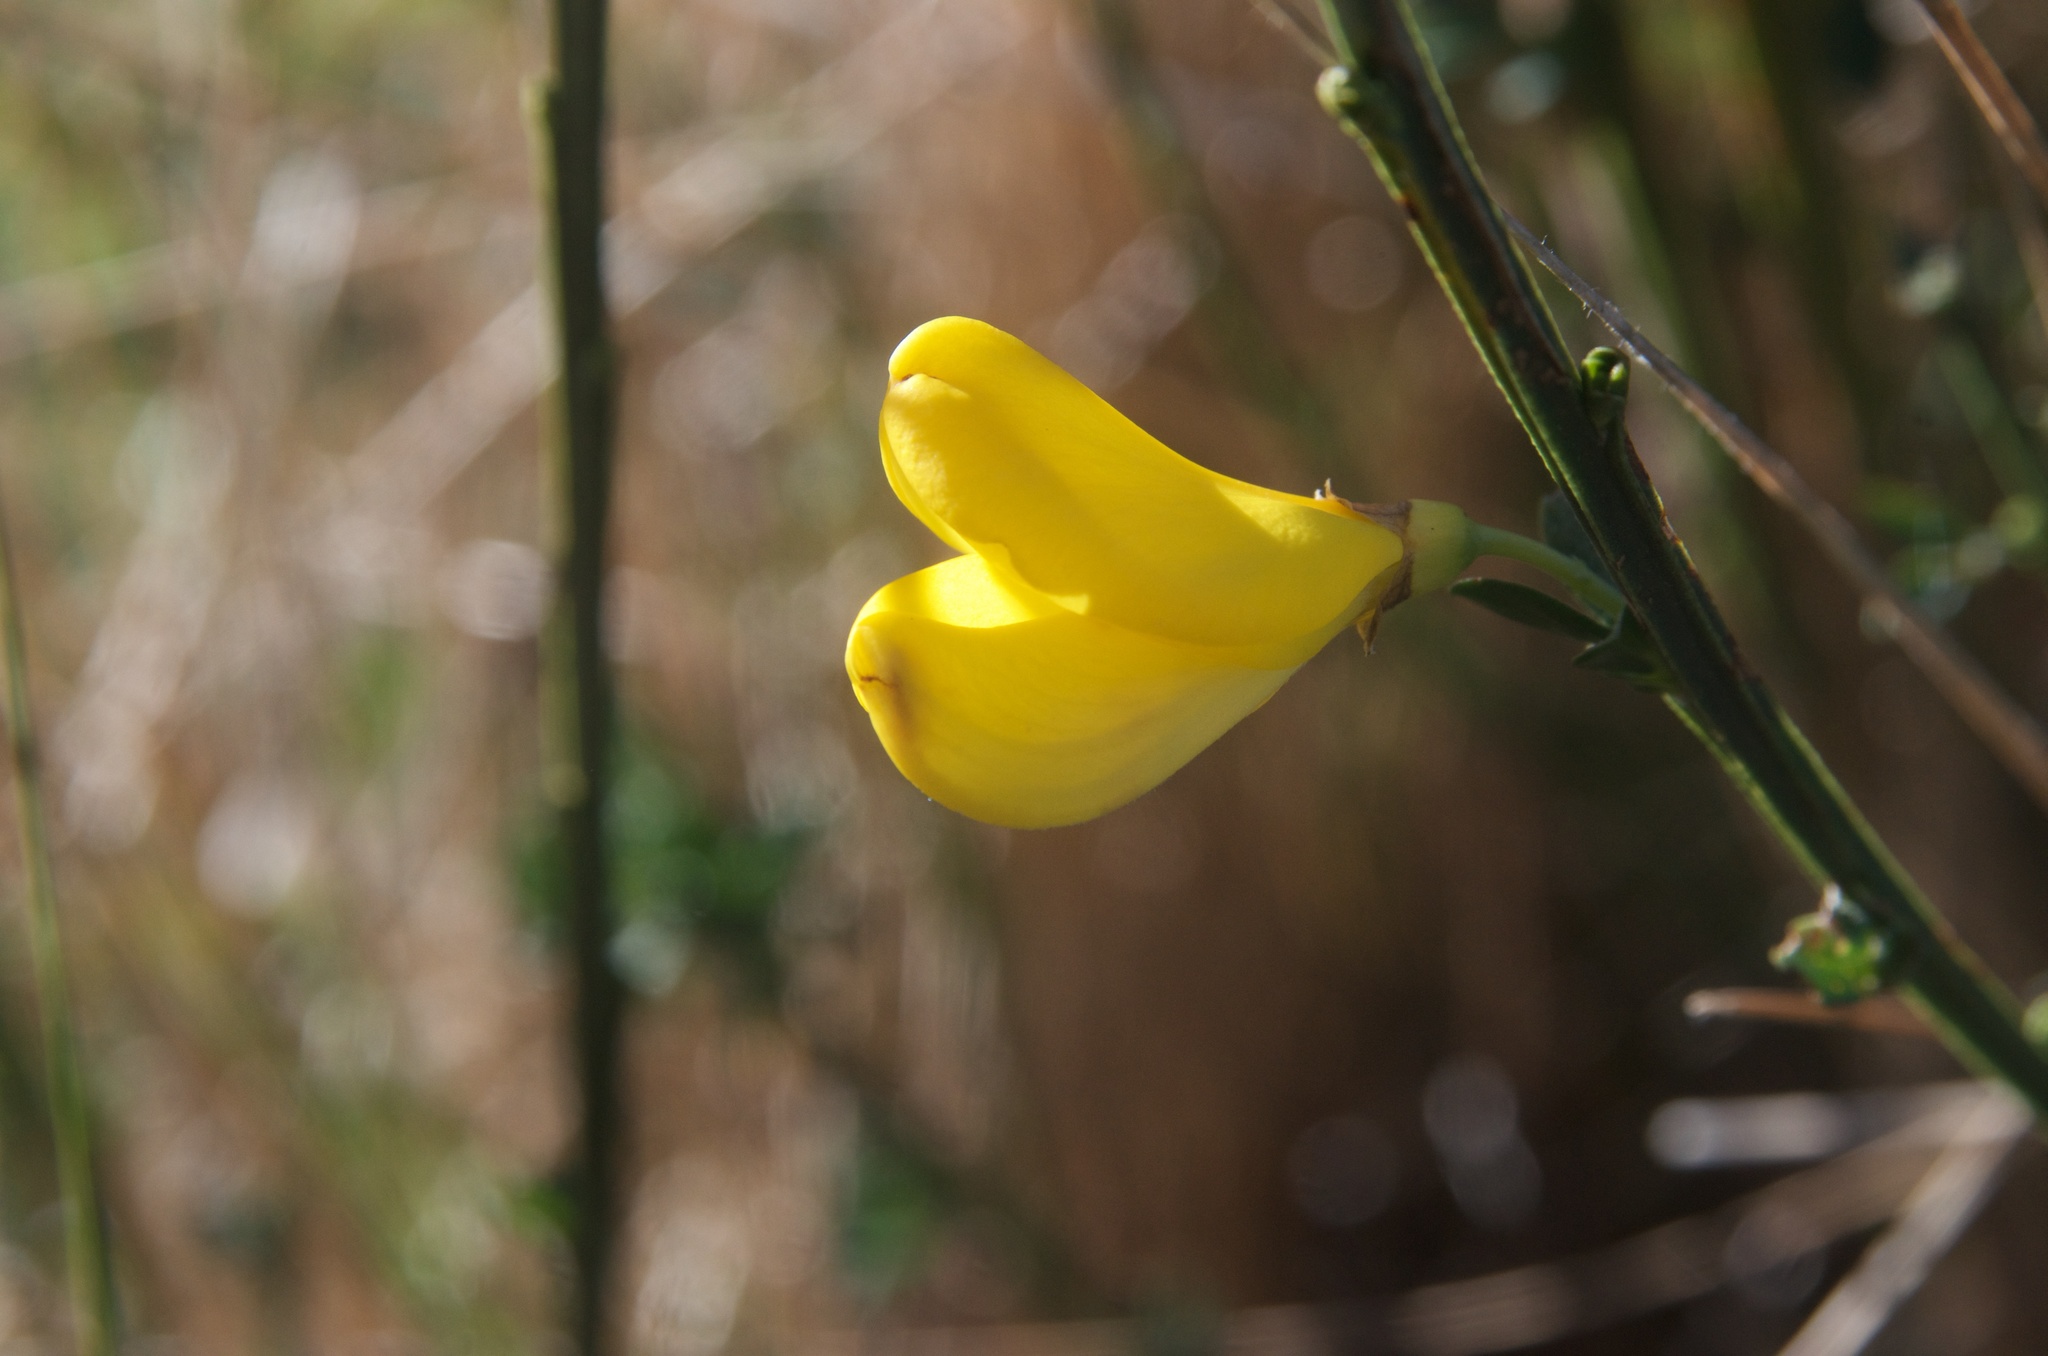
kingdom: Plantae
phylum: Tracheophyta
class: Magnoliopsida
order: Fabales
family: Fabaceae
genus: Cytisus
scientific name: Cytisus scoparius
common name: Scotch broom
